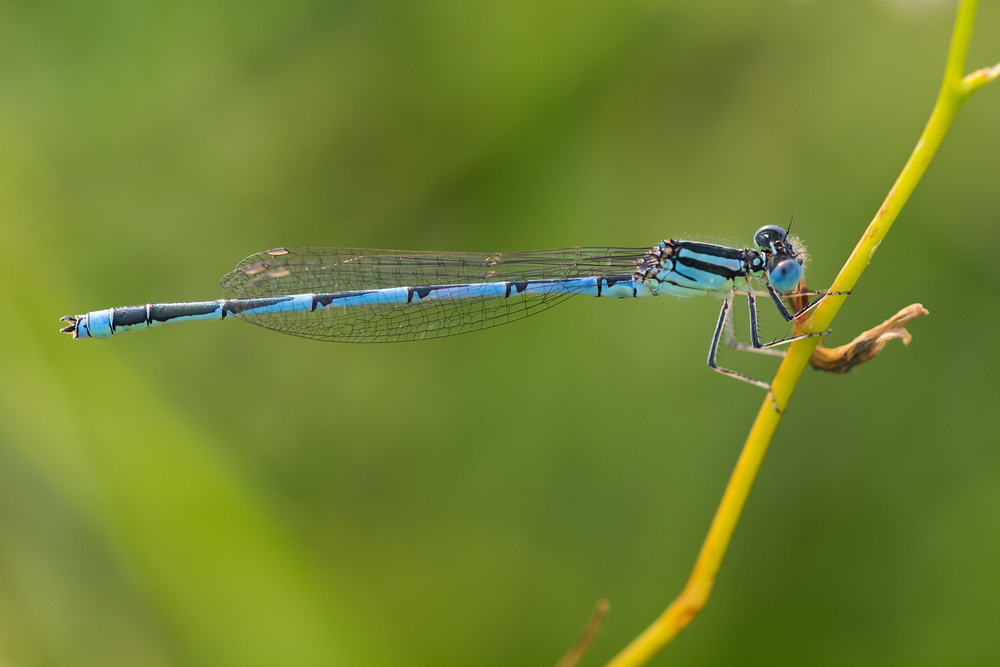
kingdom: Animalia
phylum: Arthropoda
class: Insecta
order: Odonata
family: Coenagrionidae
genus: Erythromma
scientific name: Erythromma lindenii
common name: Blue-eye
